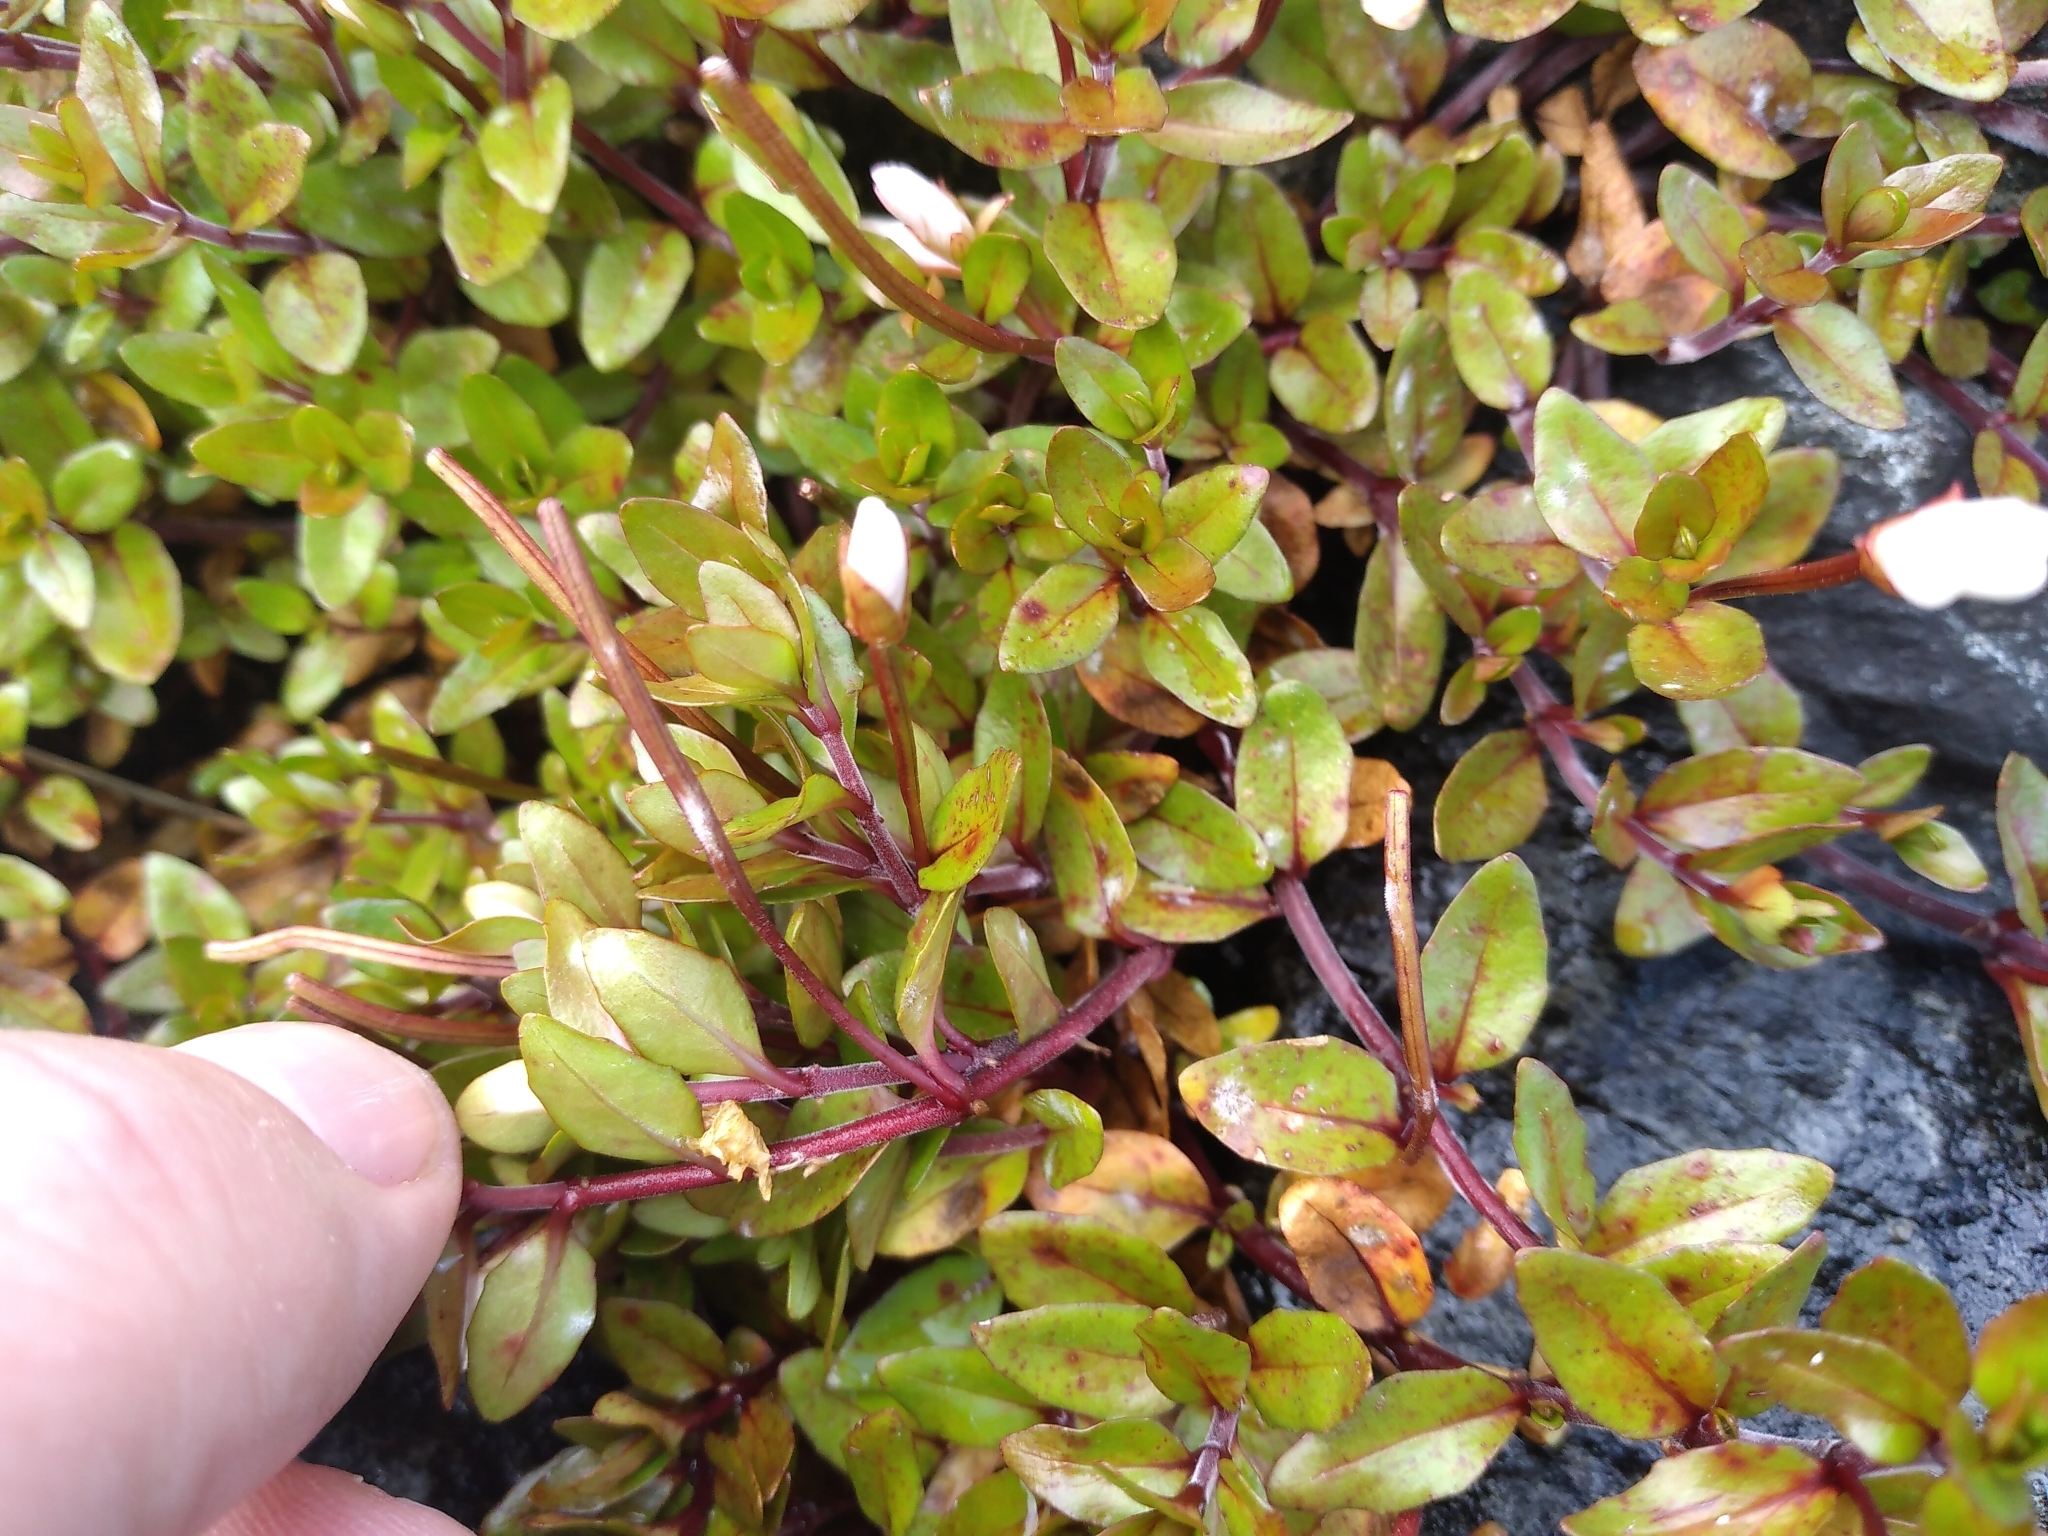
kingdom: Plantae
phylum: Tracheophyta
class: Magnoliopsida
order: Myrtales
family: Onagraceae
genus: Epilobium
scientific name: Epilobium macropus
